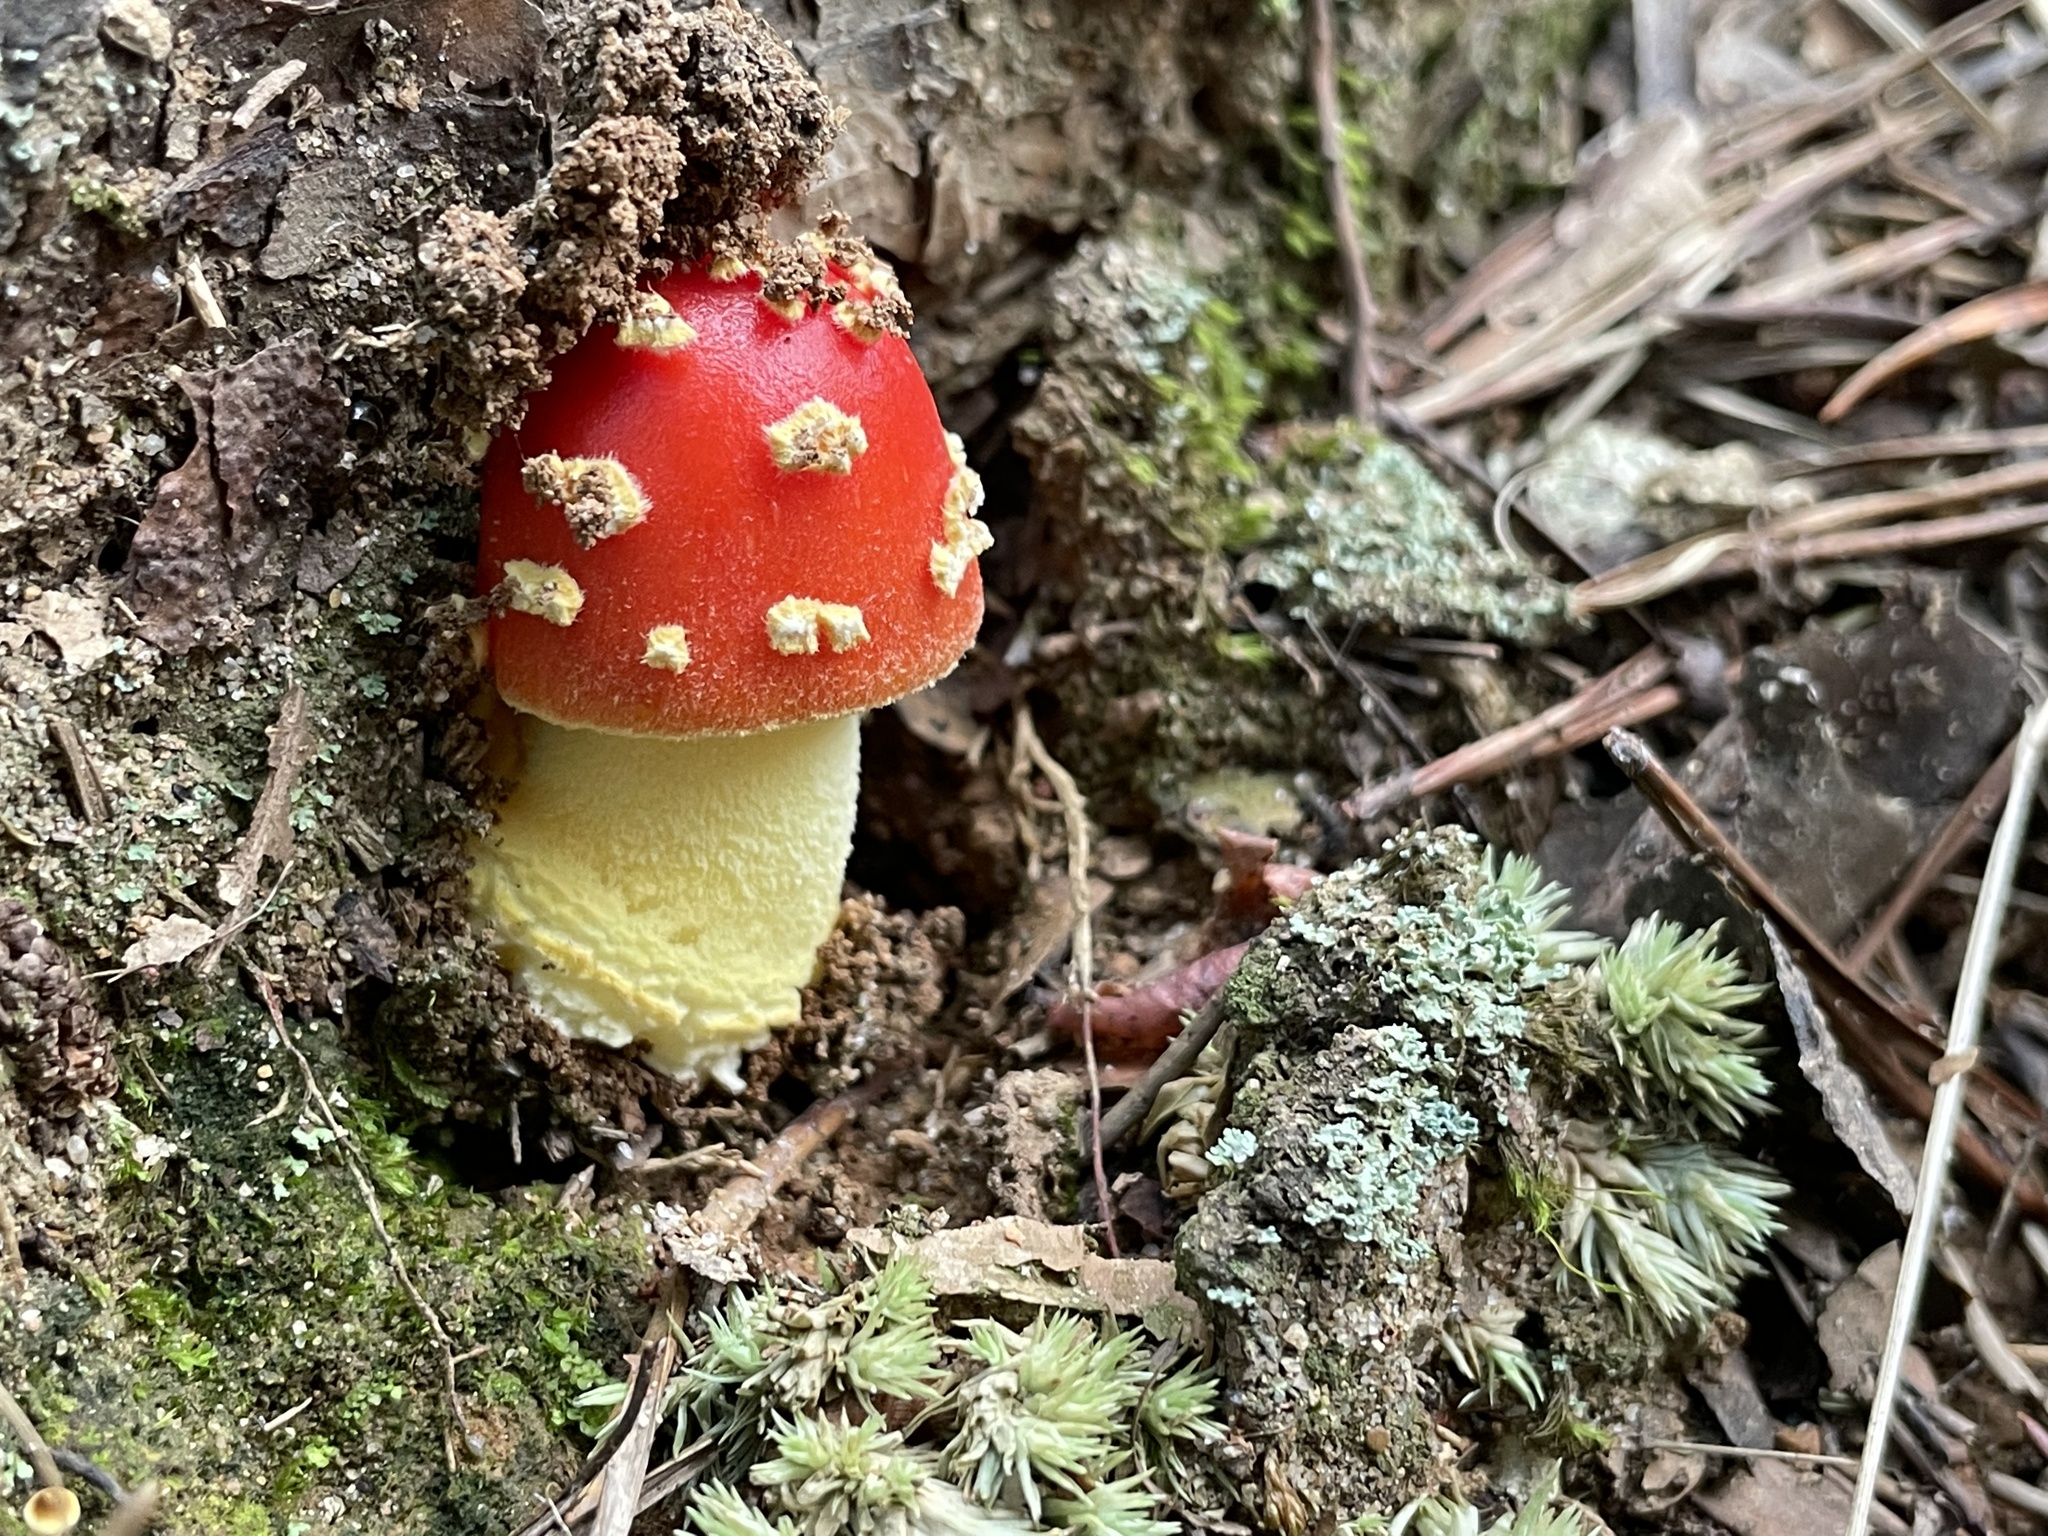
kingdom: Fungi
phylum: Basidiomycota
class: Agaricomycetes
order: Agaricales
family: Amanitaceae
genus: Amanita
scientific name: Amanita parcivolvata
